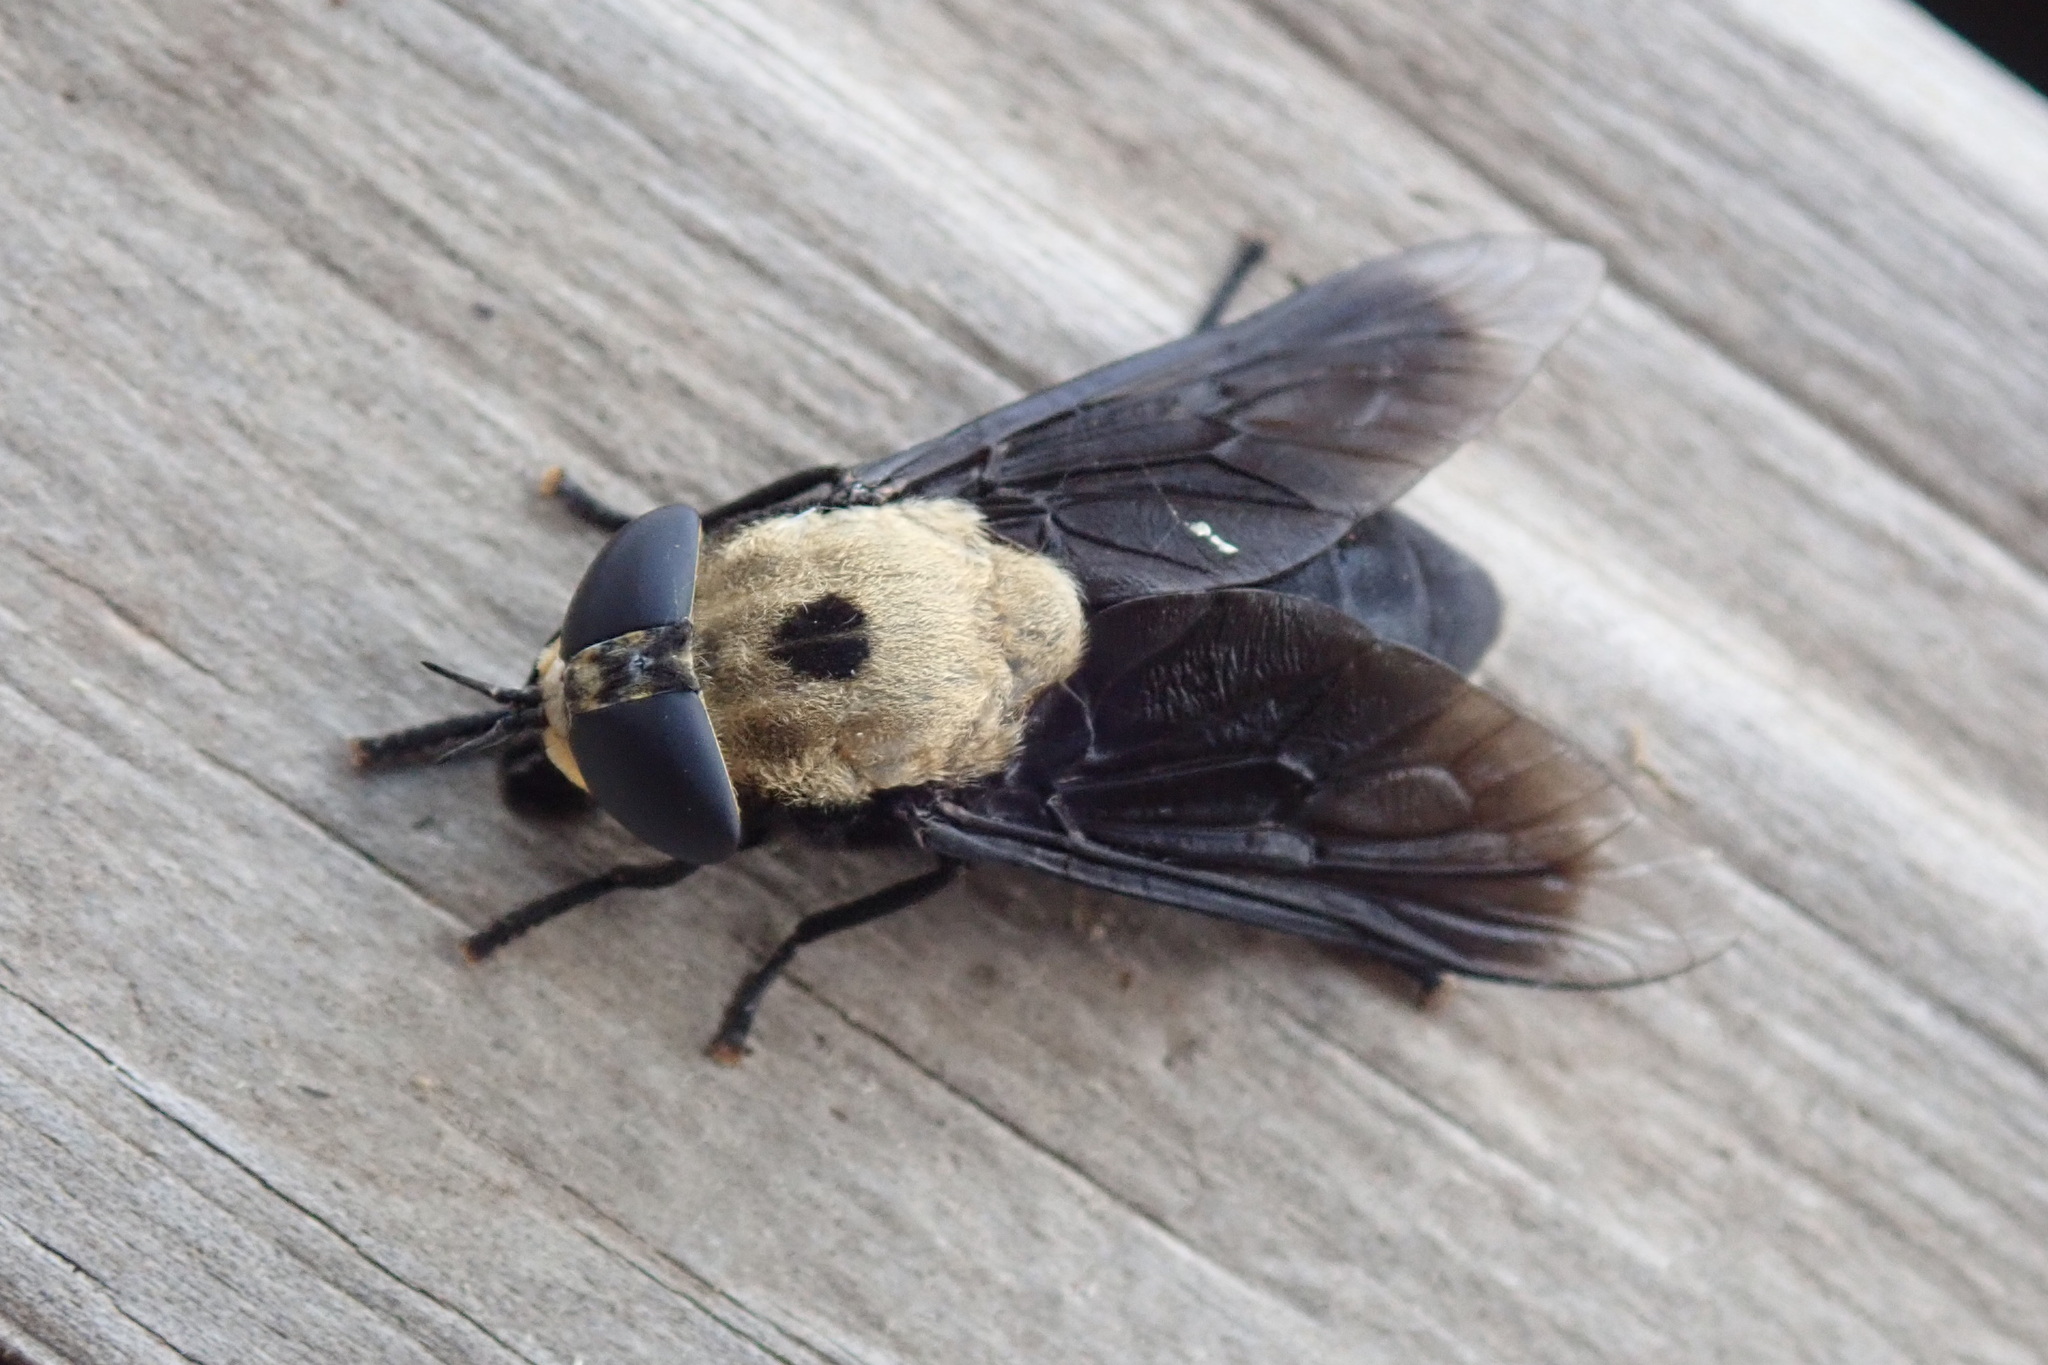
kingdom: Animalia
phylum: Arthropoda
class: Insecta
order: Diptera
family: Tabanidae
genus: Tabanus
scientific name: Tabanus biguttatus
